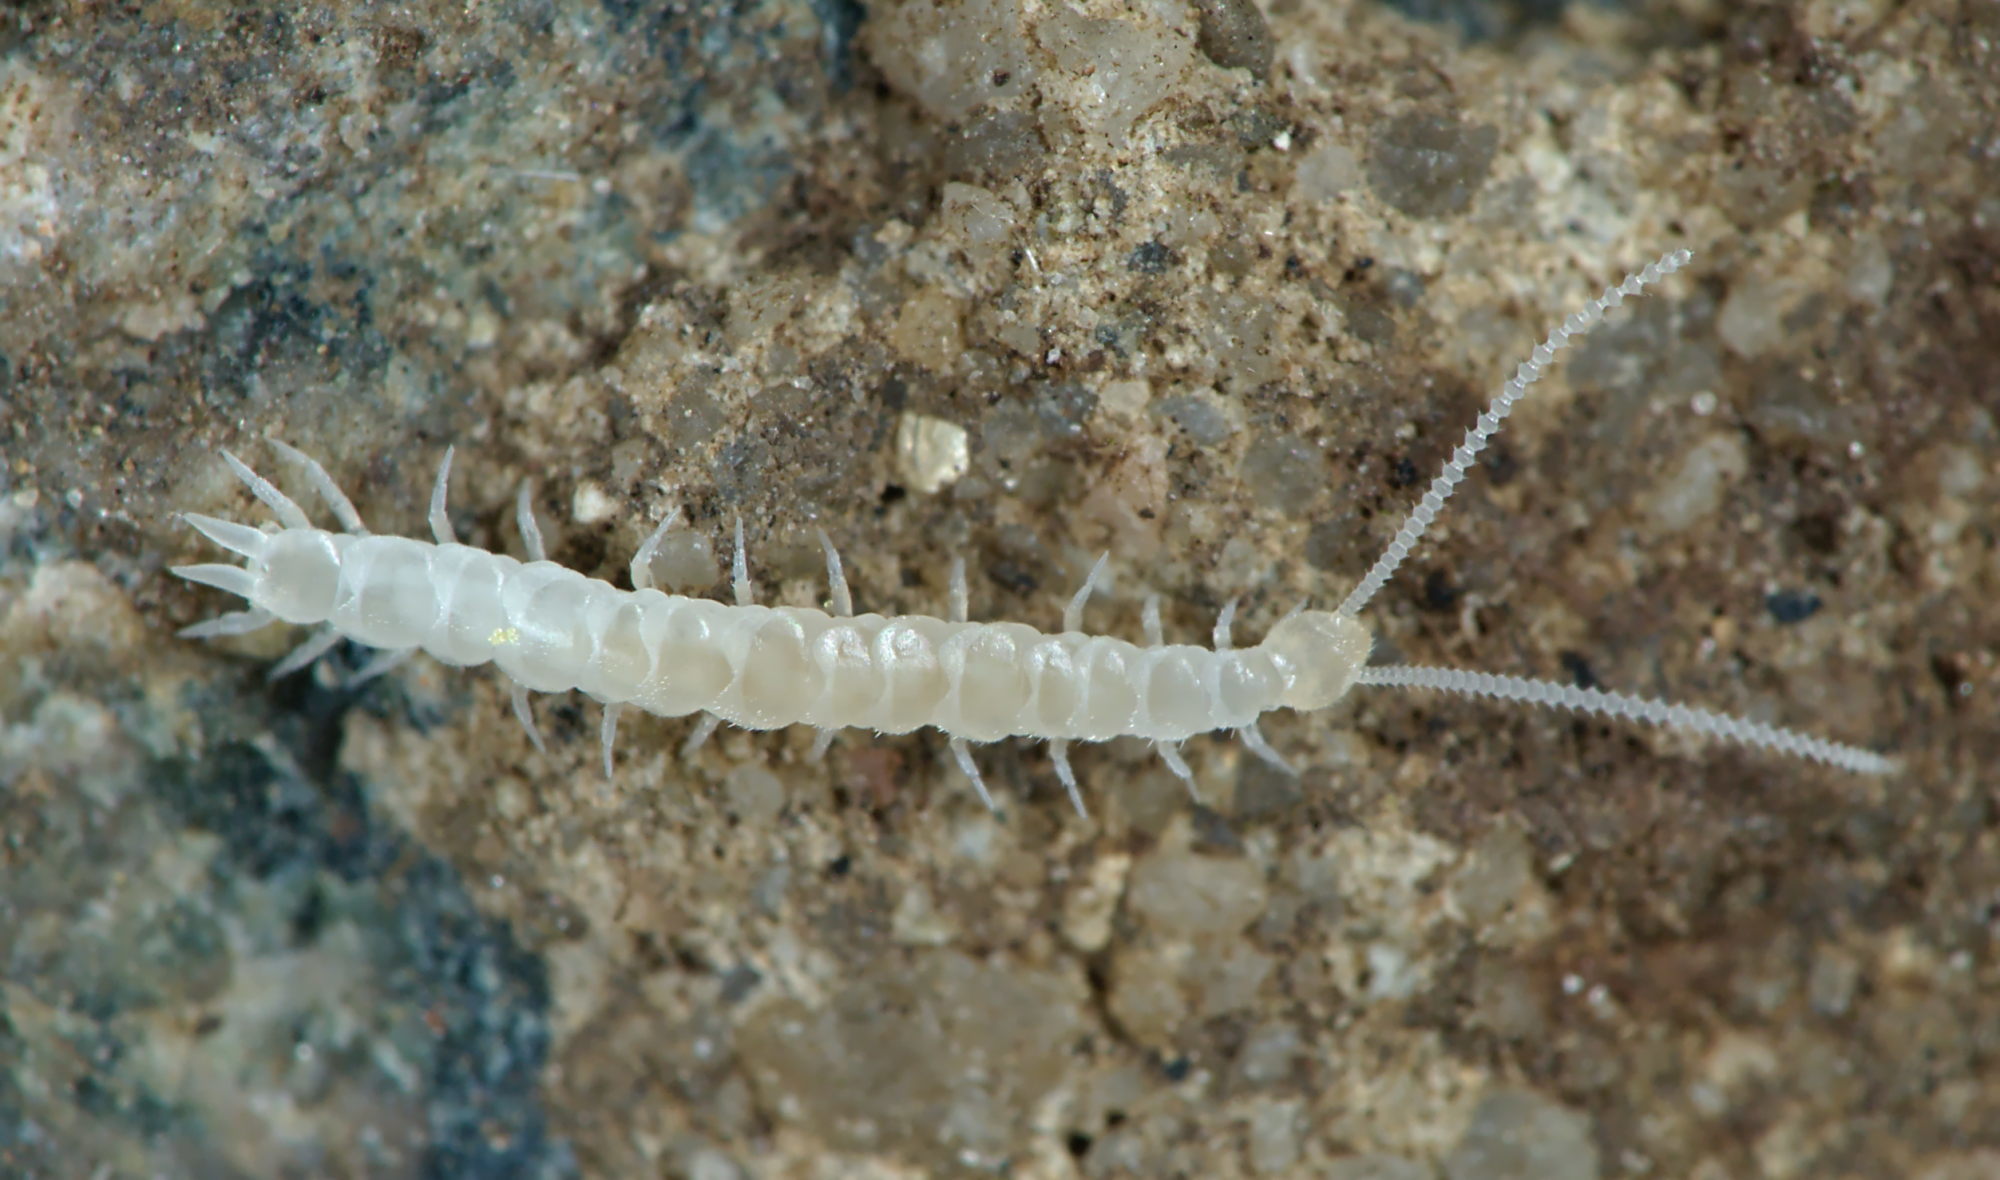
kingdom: Animalia
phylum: Arthropoda
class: Symphyla
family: Scutigerellidae
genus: Scutigerella
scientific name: Scutigerella
